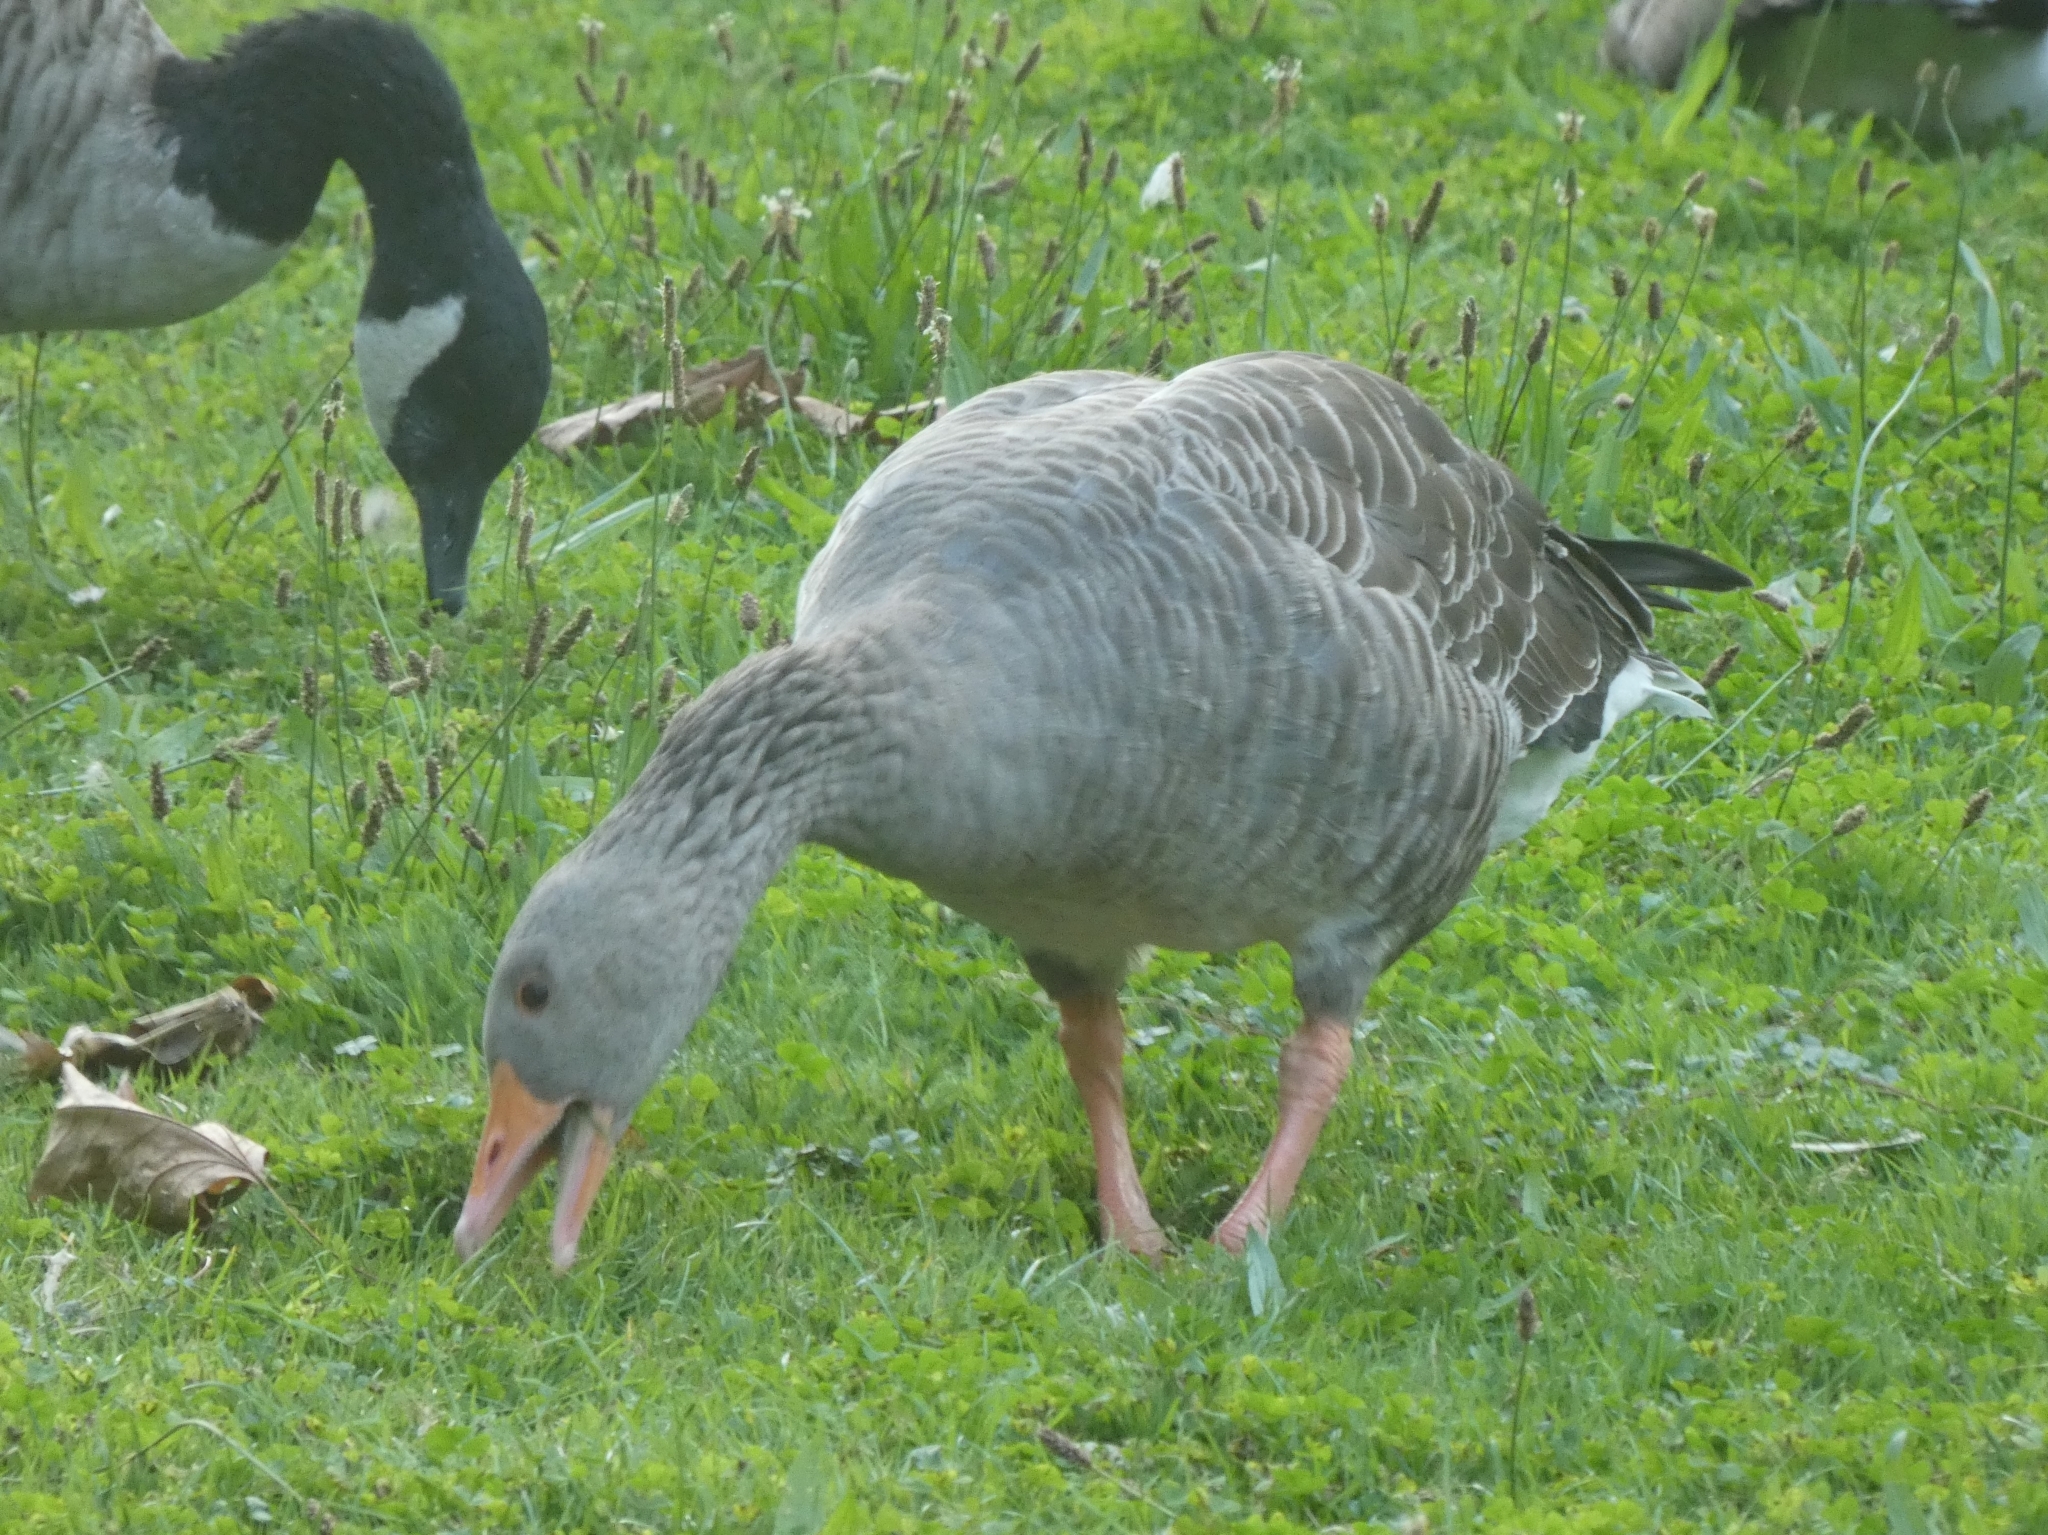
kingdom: Animalia
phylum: Chordata
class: Aves
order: Anseriformes
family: Anatidae
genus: Anser
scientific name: Anser anser
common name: Greylag goose
